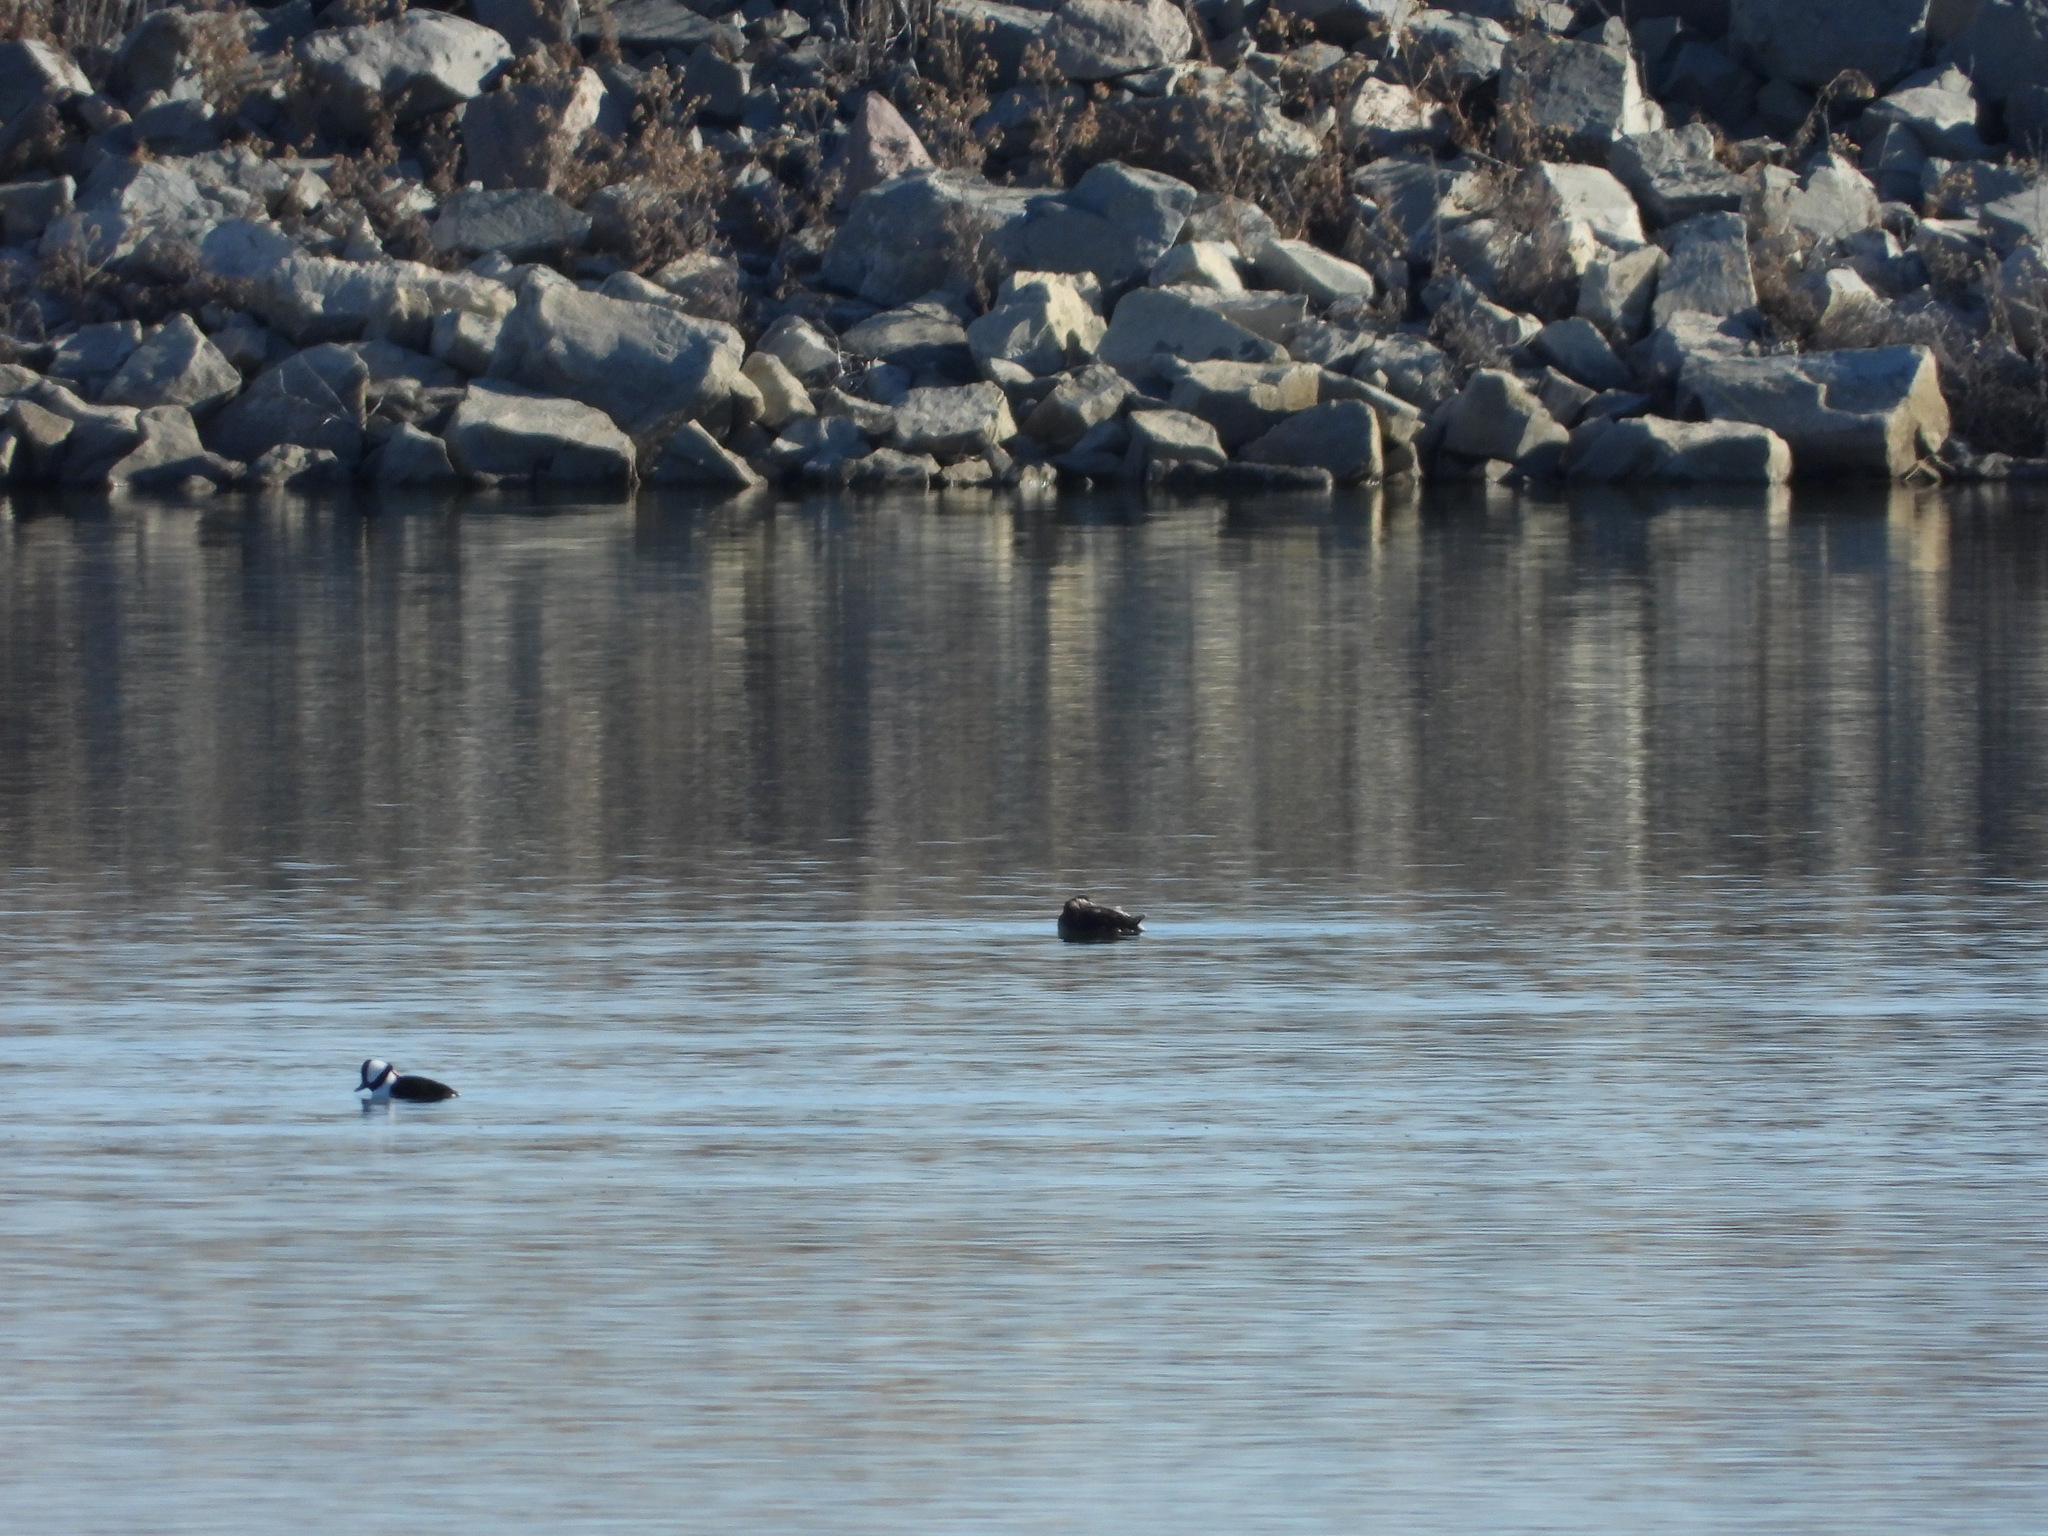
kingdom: Animalia
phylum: Chordata
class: Aves
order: Anseriformes
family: Anatidae
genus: Bucephala
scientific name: Bucephala albeola
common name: Bufflehead
